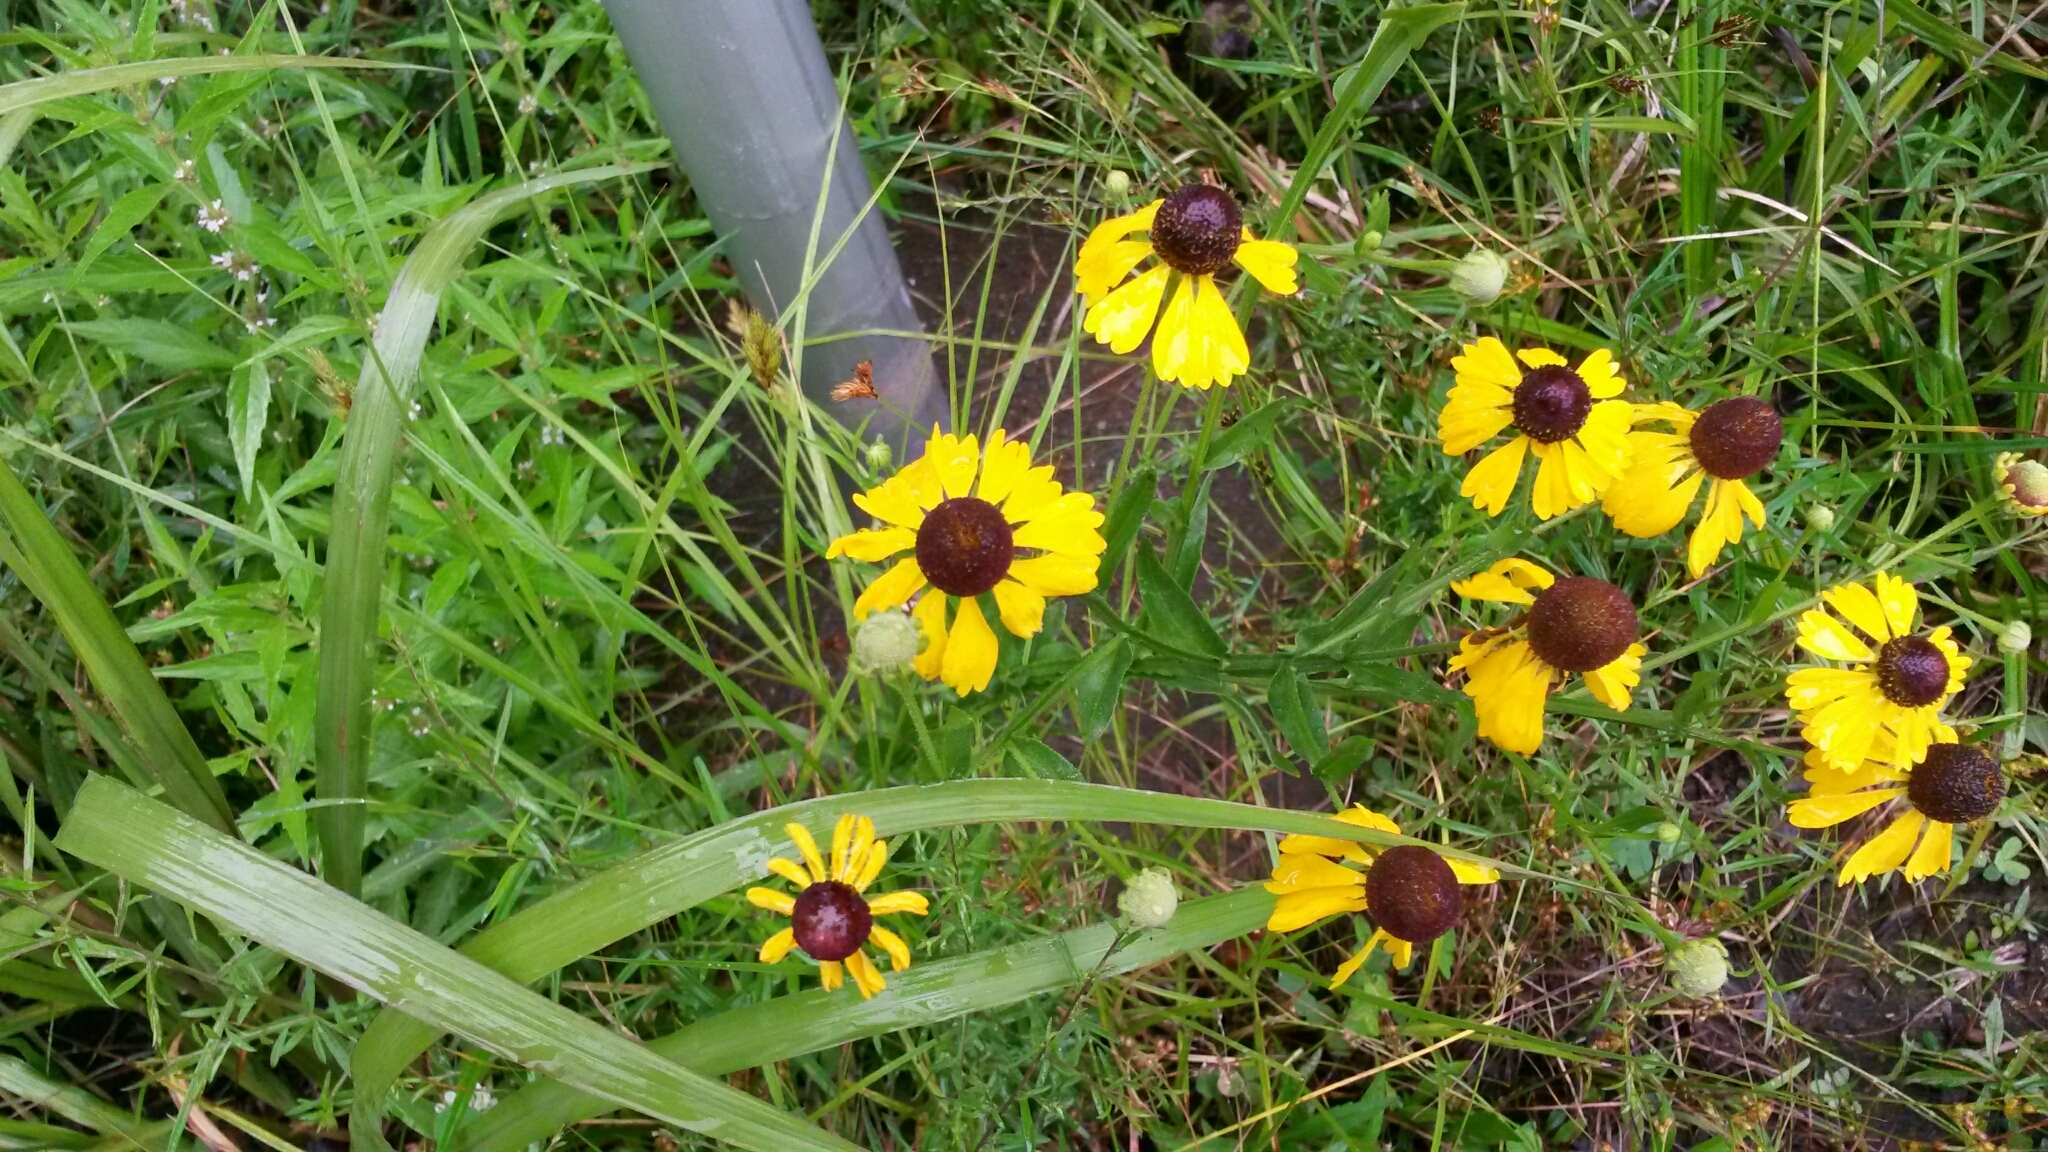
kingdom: Plantae
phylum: Tracheophyta
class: Magnoliopsida
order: Asterales
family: Asteraceae
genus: Helenium
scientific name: Helenium flexuosum
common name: Naked-flowered sneezeweed
